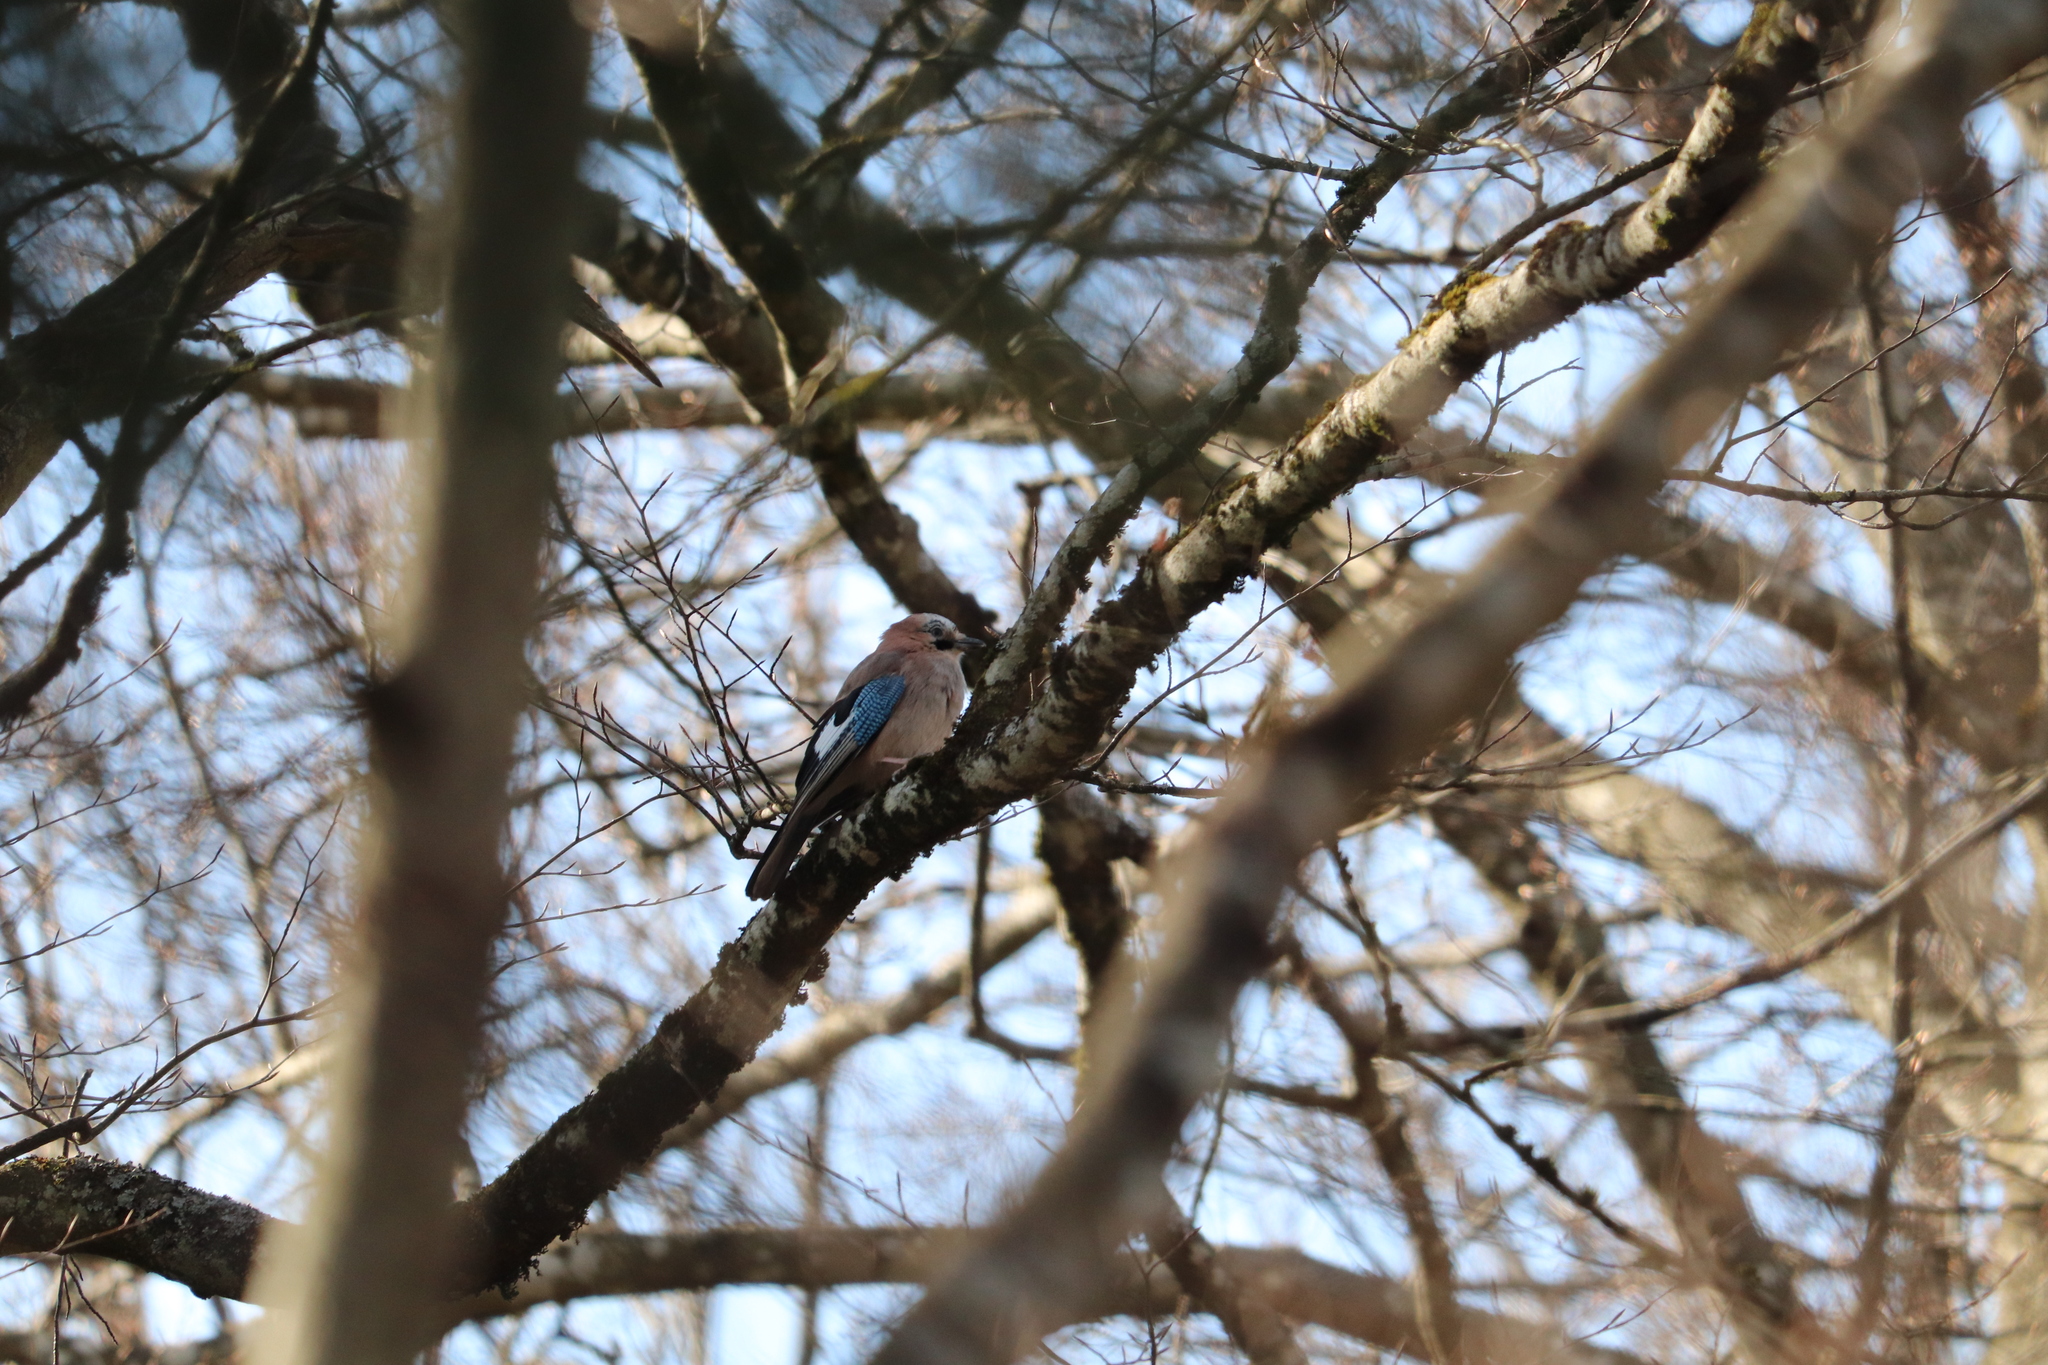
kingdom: Animalia
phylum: Chordata
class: Aves
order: Passeriformes
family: Corvidae
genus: Garrulus
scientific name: Garrulus glandarius
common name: Eurasian jay
